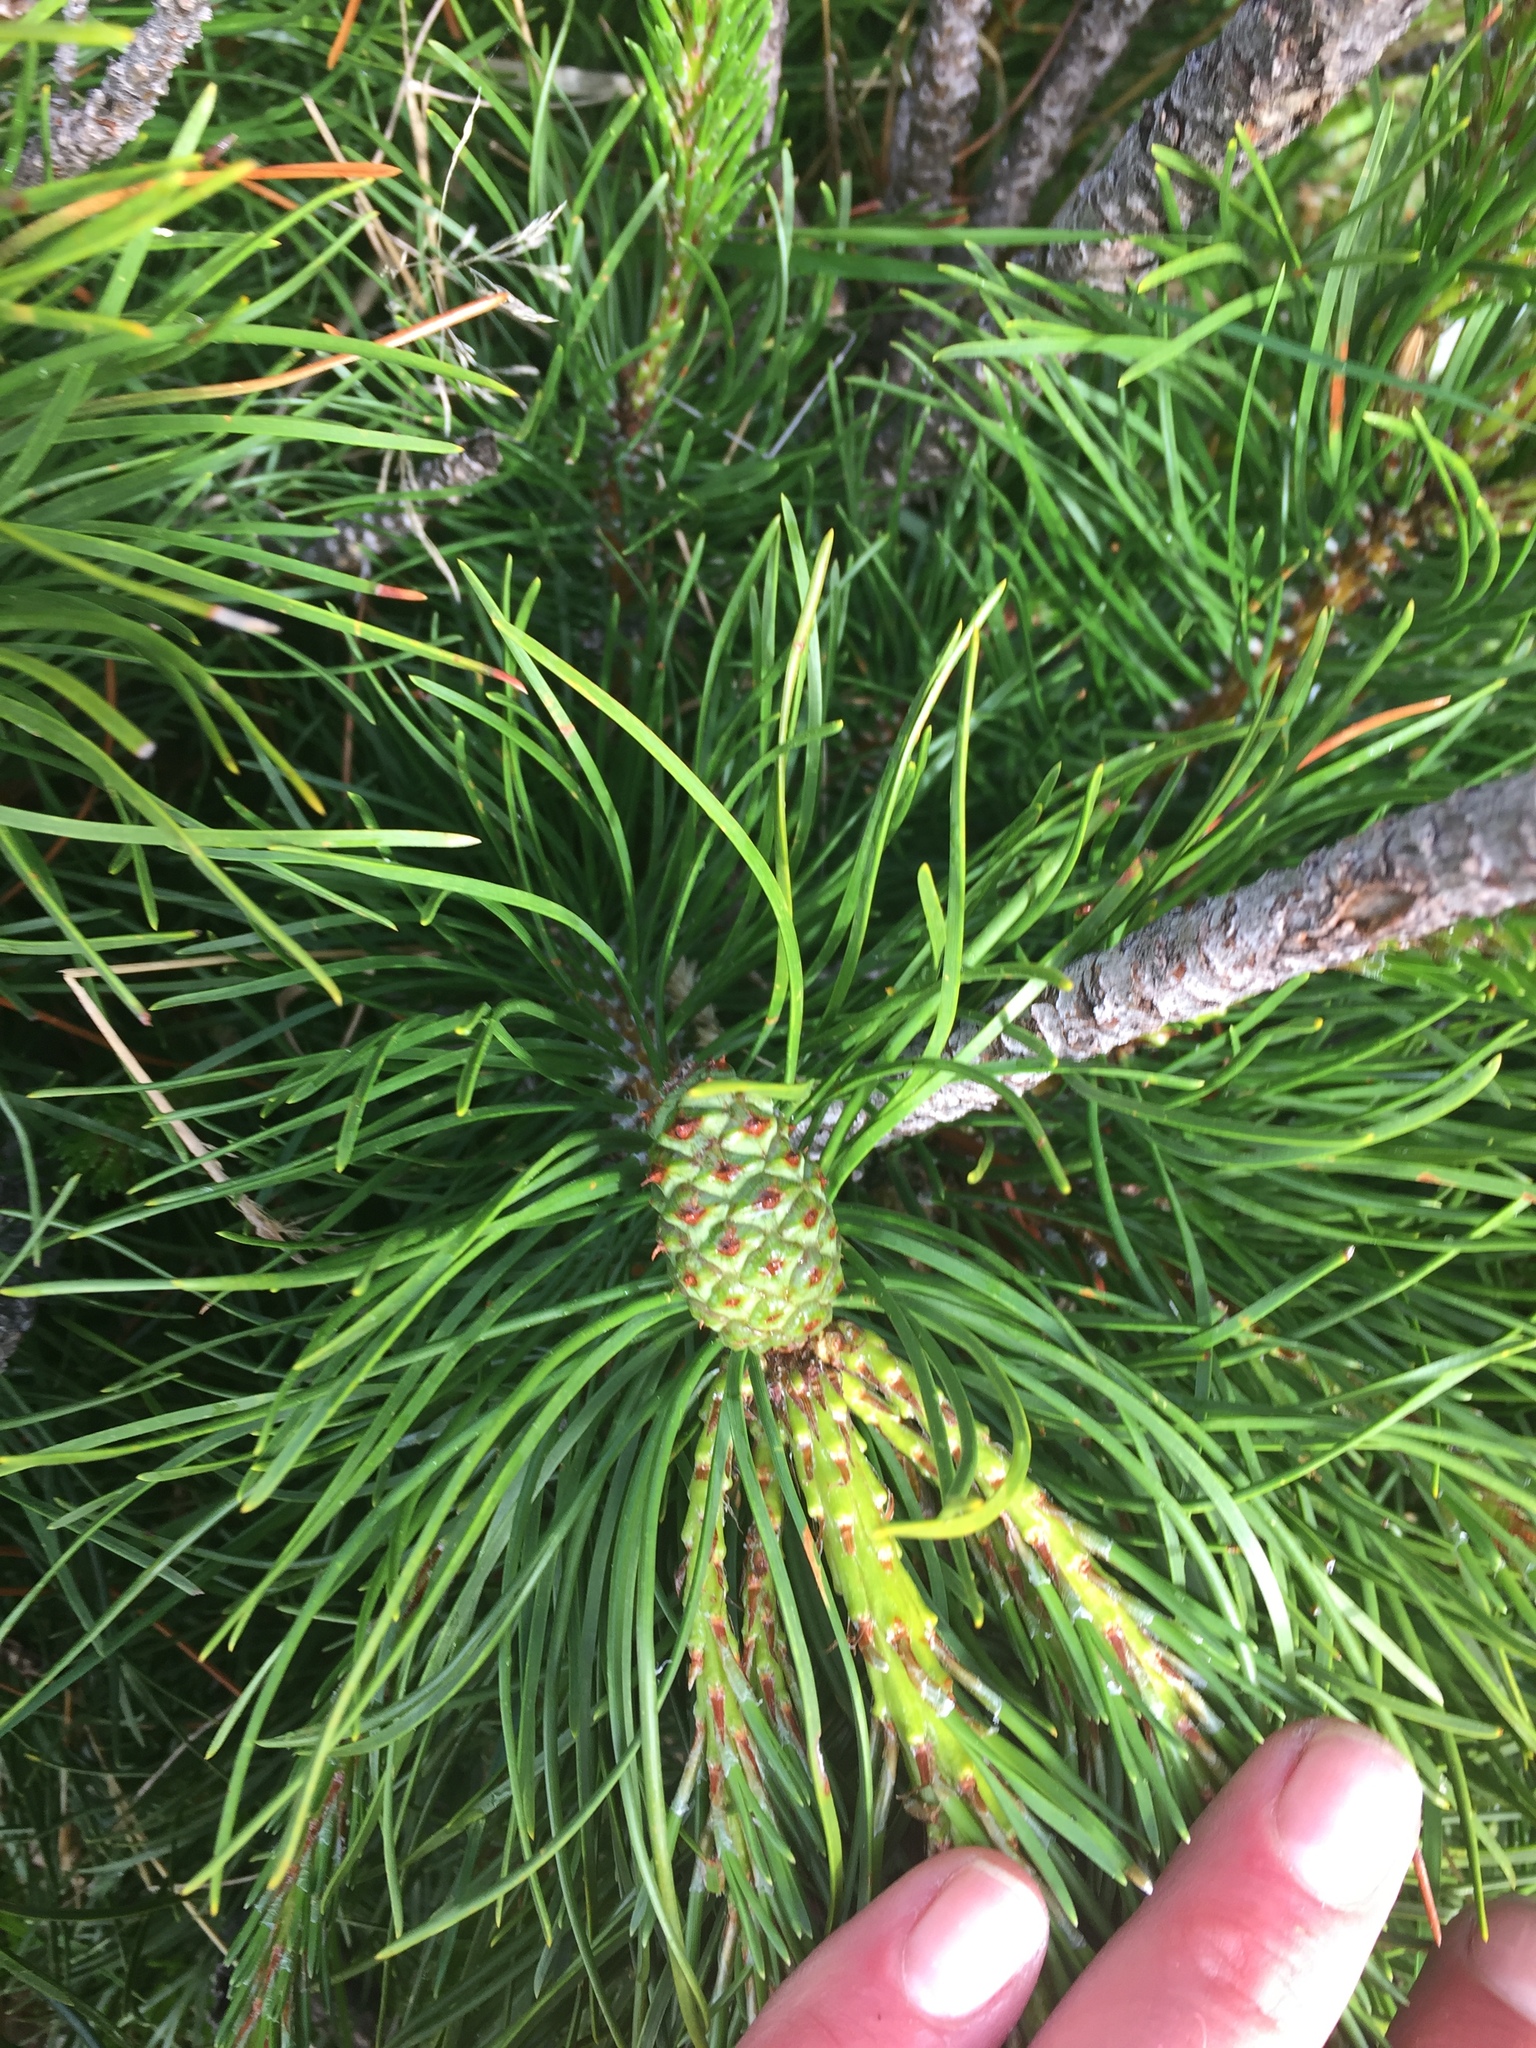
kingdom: Plantae
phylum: Tracheophyta
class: Pinopsida
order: Pinales
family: Pinaceae
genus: Pinus
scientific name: Pinus contorta
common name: Lodgepole pine
